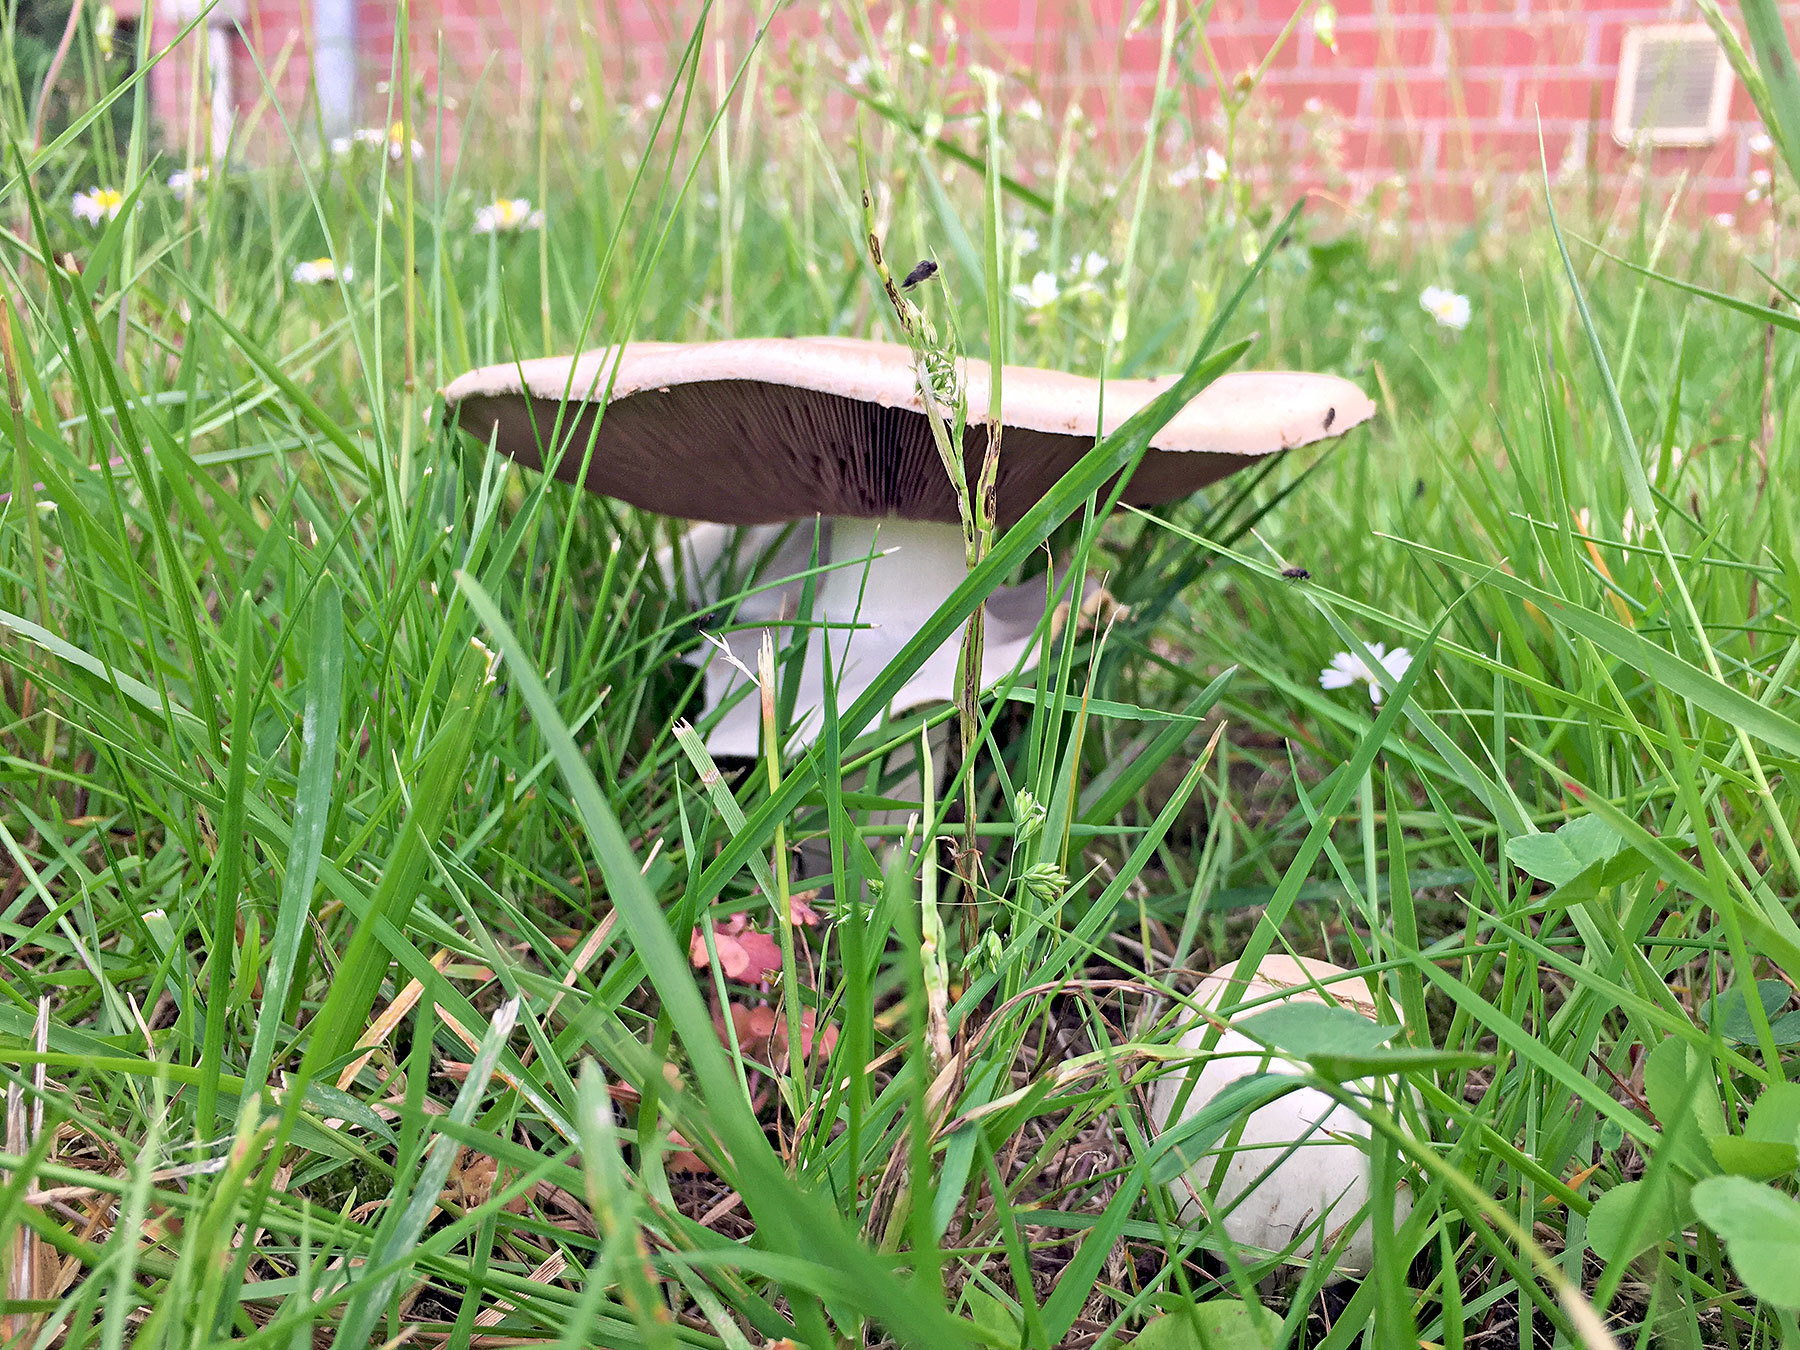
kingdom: Fungi
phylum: Basidiomycota
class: Agaricomycetes
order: Agaricales
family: Agaricaceae
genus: Agaricus
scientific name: Agaricus xanthodermus
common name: Yellow stainer
